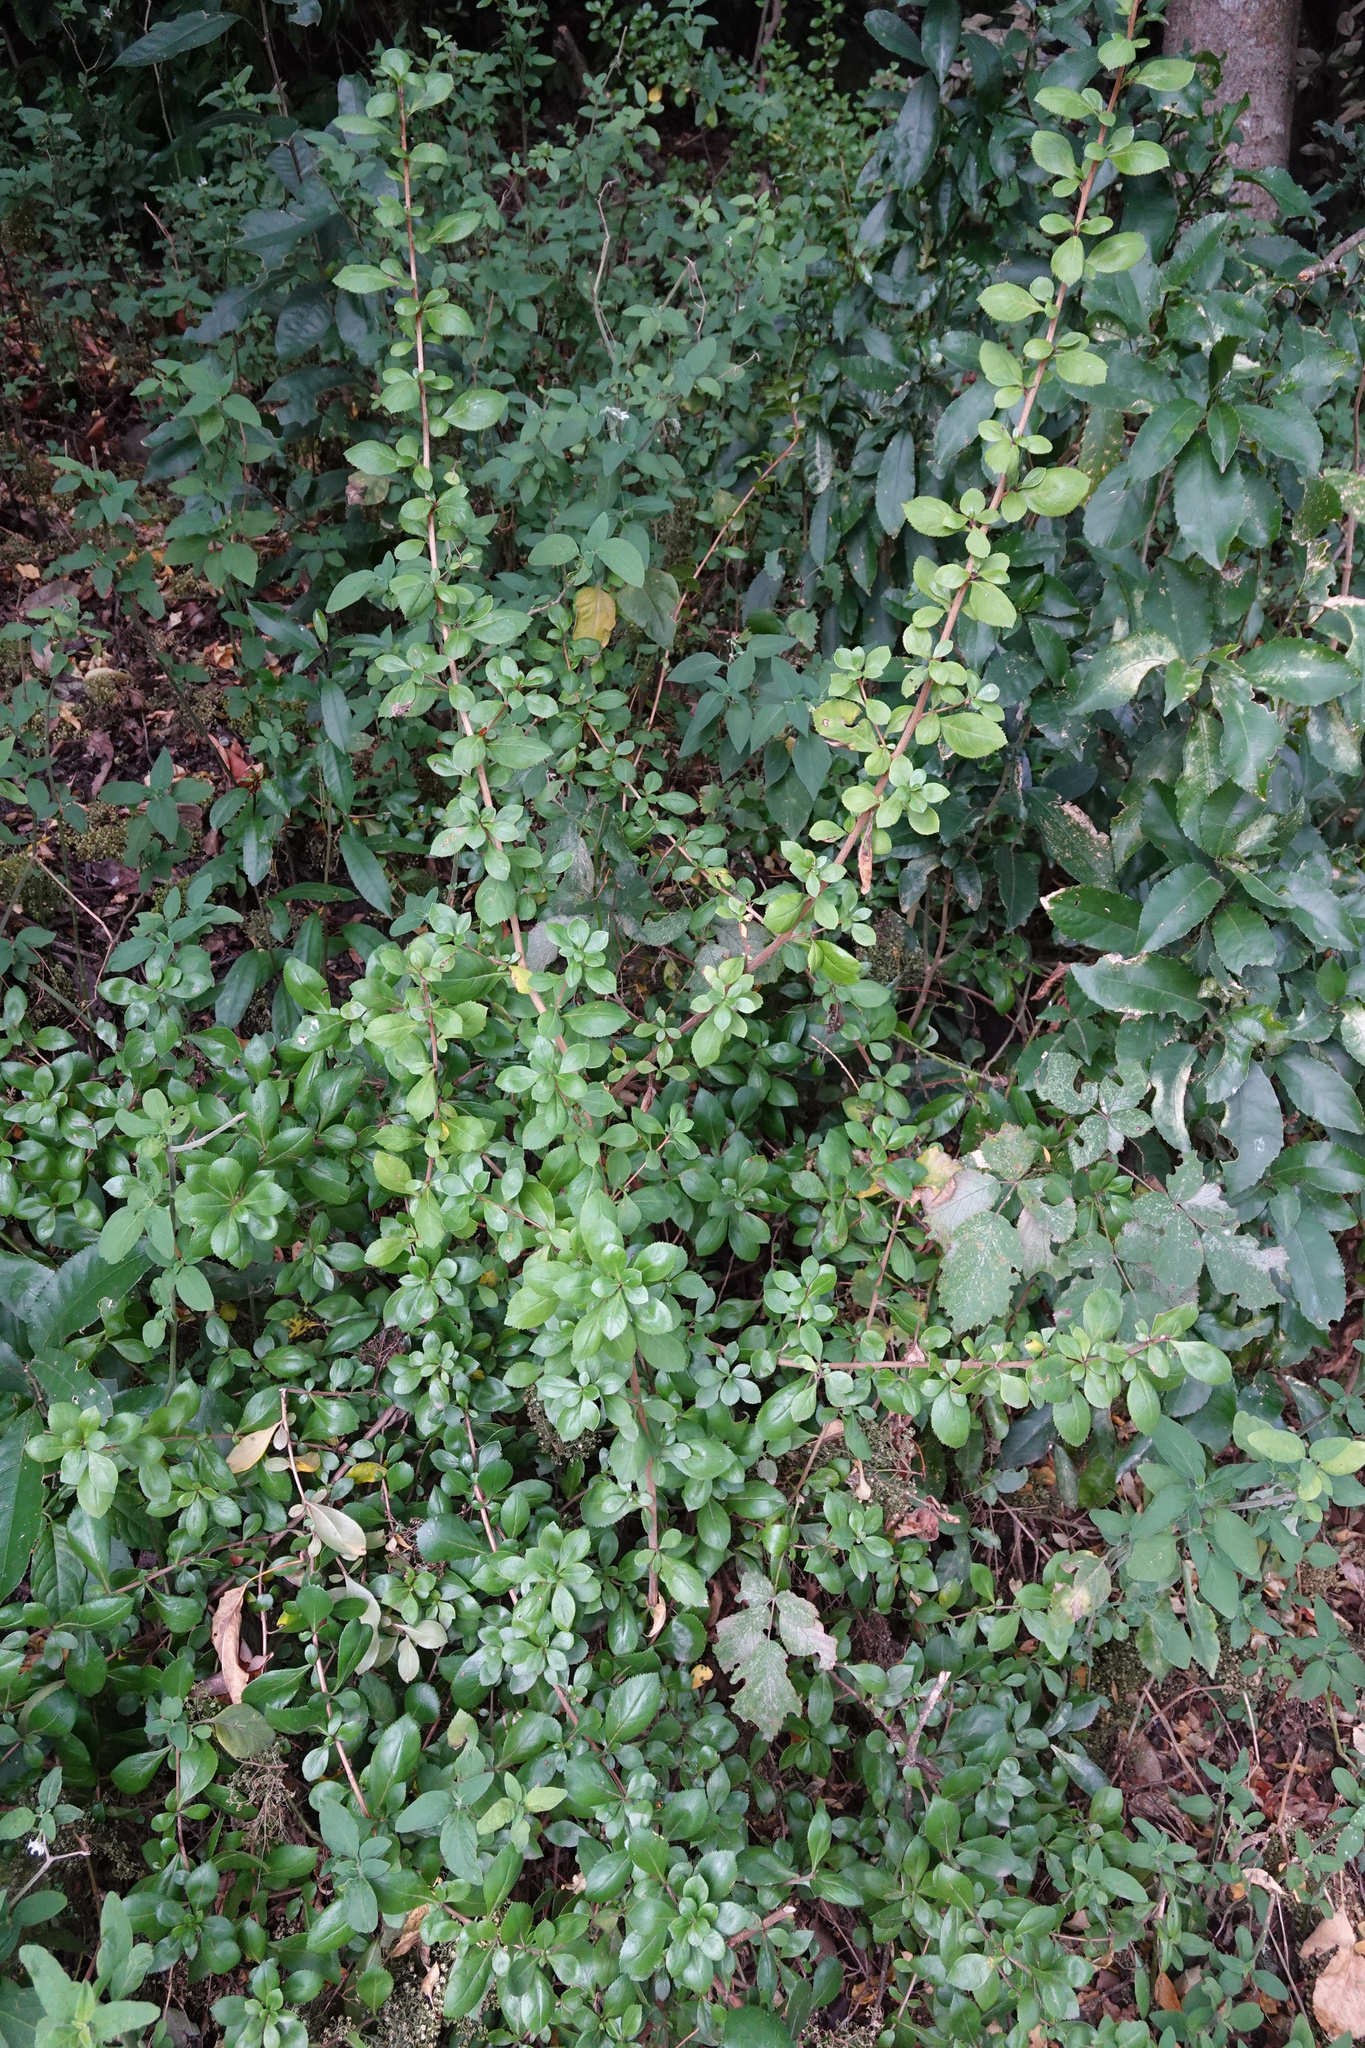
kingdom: Plantae
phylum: Tracheophyta
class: Magnoliopsida
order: Escalloniales
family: Escalloniaceae
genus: Escallonia
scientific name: Escallonia rubra
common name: Redclaws
